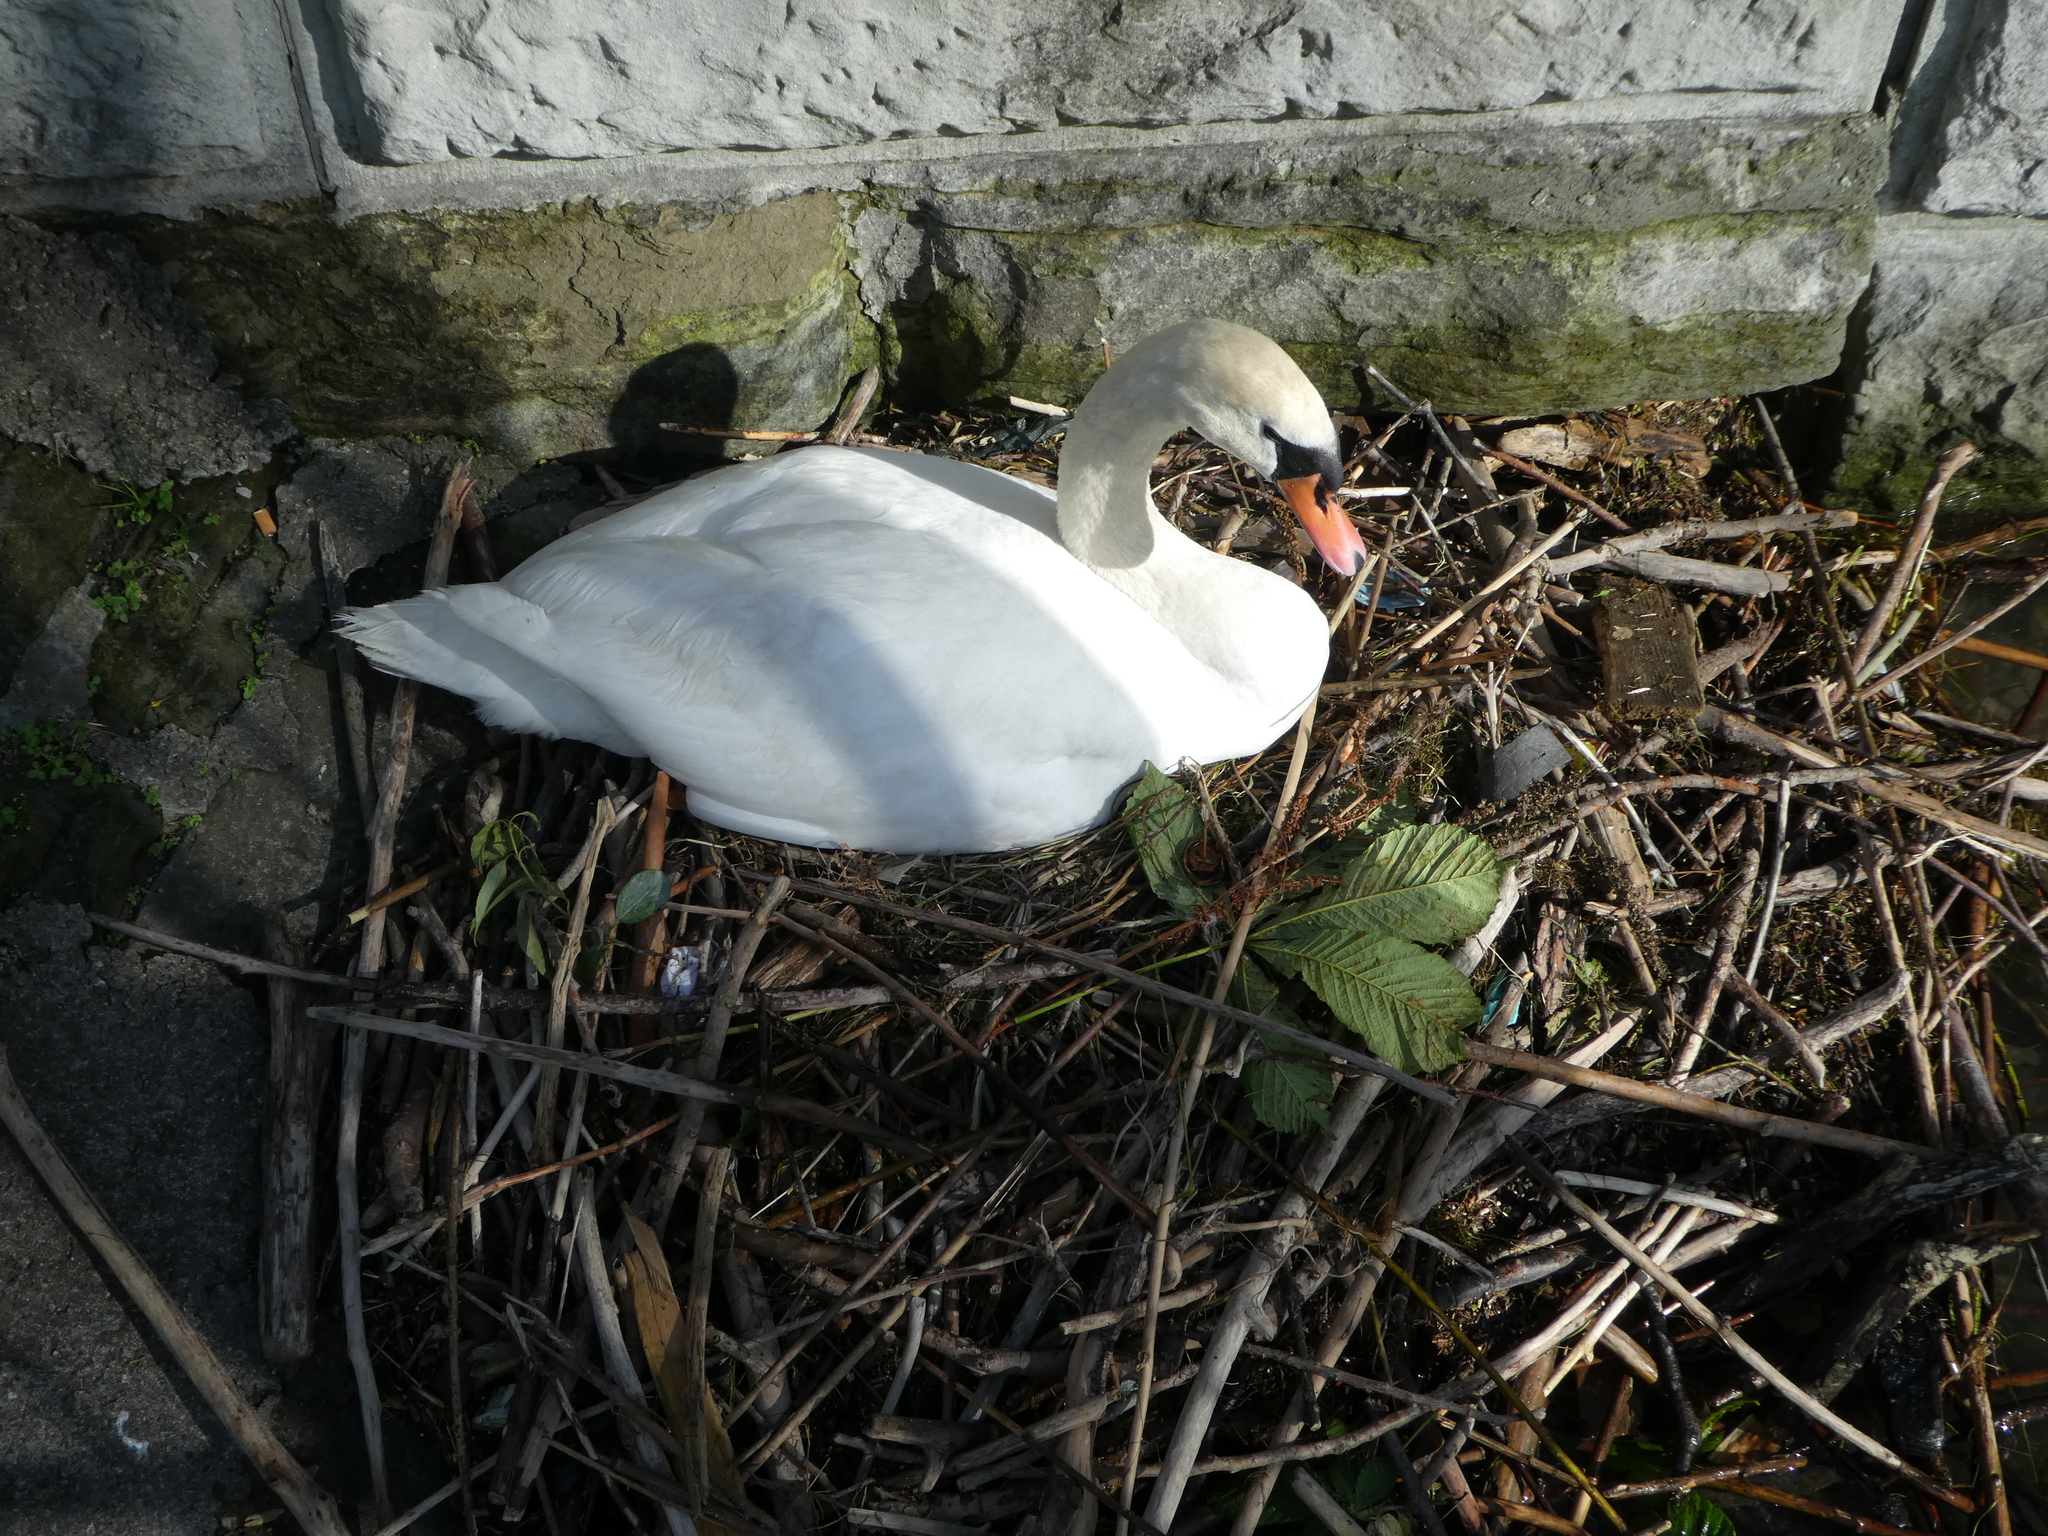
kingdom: Animalia
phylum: Chordata
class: Aves
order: Anseriformes
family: Anatidae
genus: Cygnus
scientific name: Cygnus olor
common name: Mute swan
